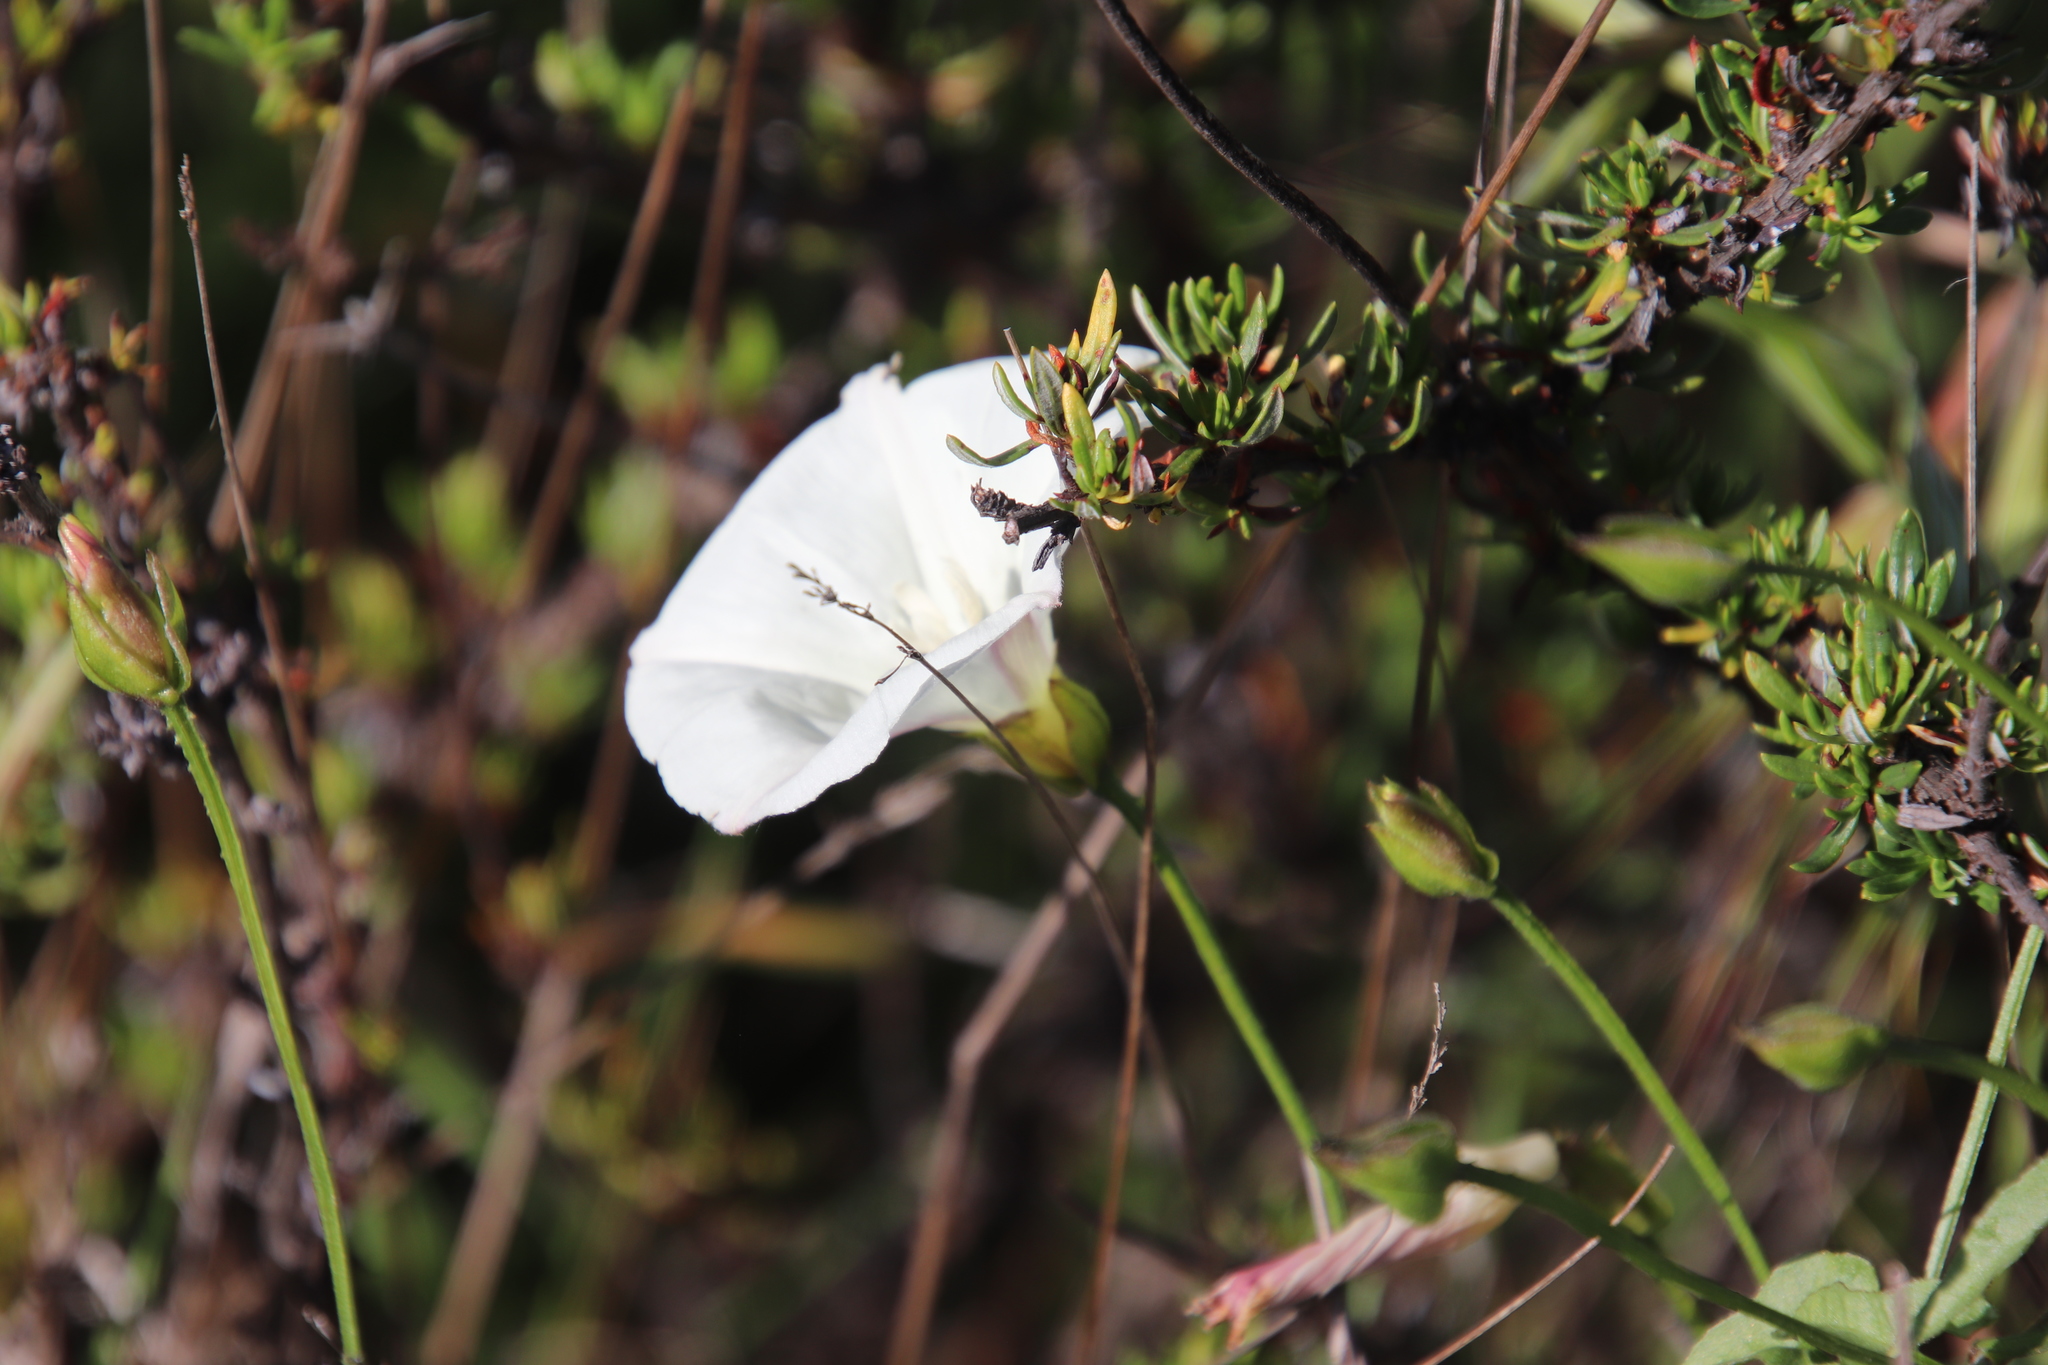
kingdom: Plantae
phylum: Tracheophyta
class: Magnoliopsida
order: Solanales
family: Convolvulaceae
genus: Calystegia
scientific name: Calystegia macrostegia
